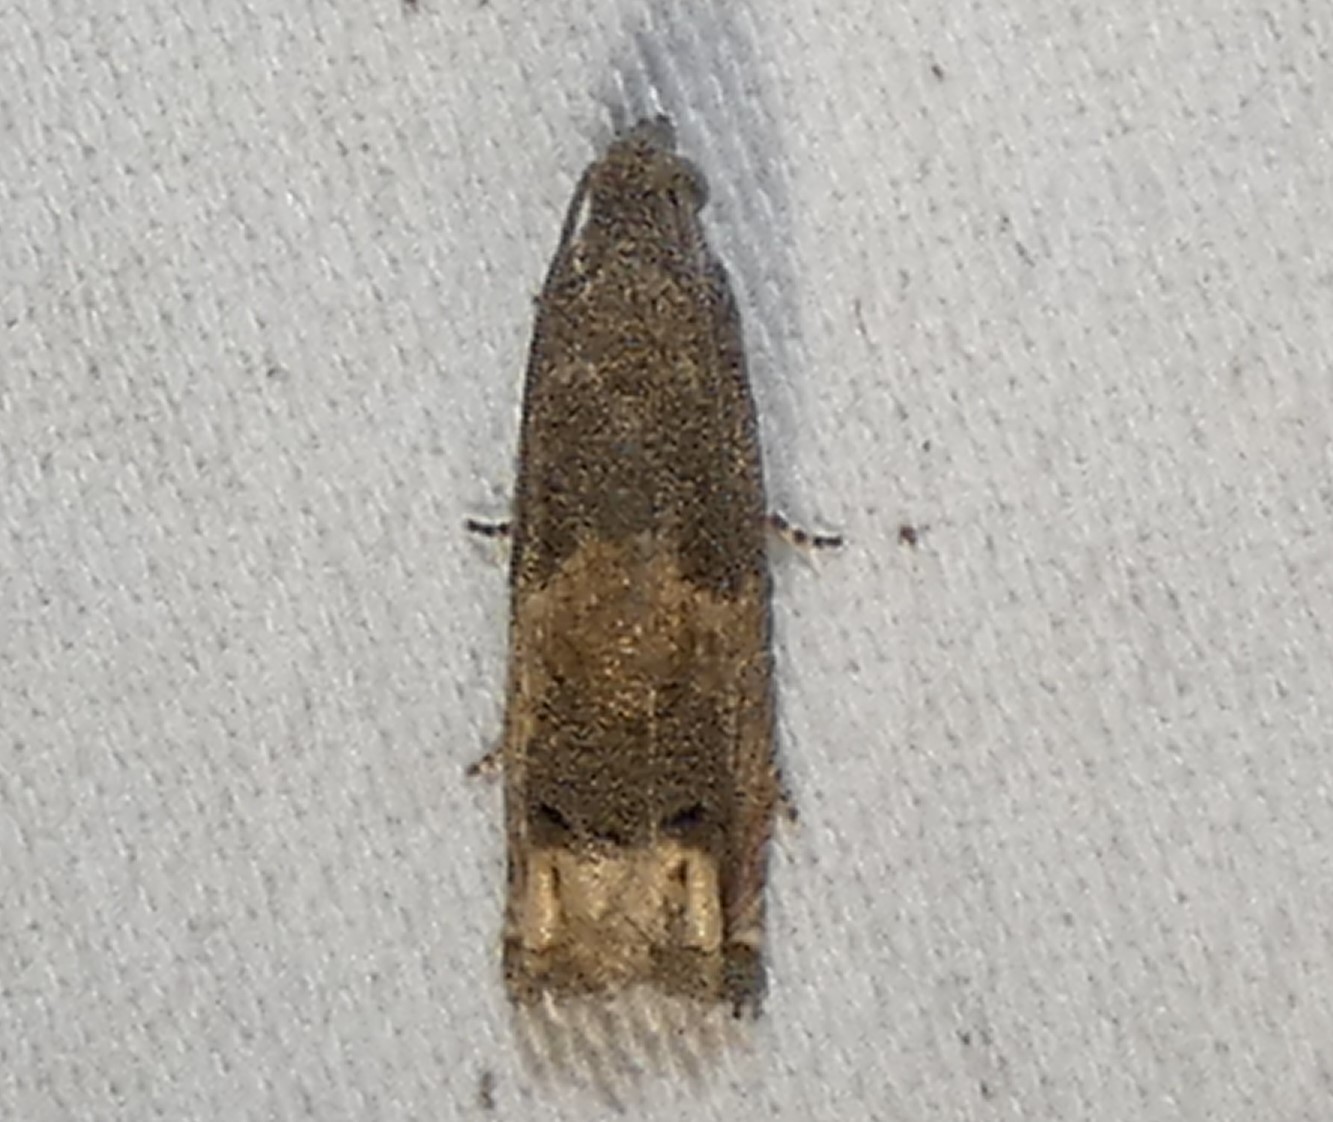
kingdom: Animalia
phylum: Arthropoda
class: Insecta
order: Lepidoptera
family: Tortricidae
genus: Epiblema
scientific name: Epiblema strenuana
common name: Ragweed borer moth
